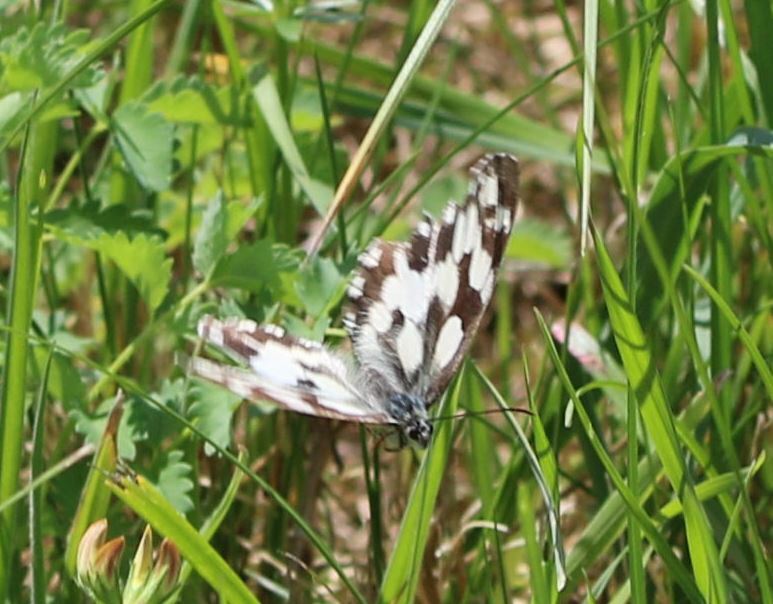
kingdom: Animalia
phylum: Arthropoda
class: Insecta
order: Lepidoptera
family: Nymphalidae
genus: Melanargia
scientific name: Melanargia galathea
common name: Marbled white
